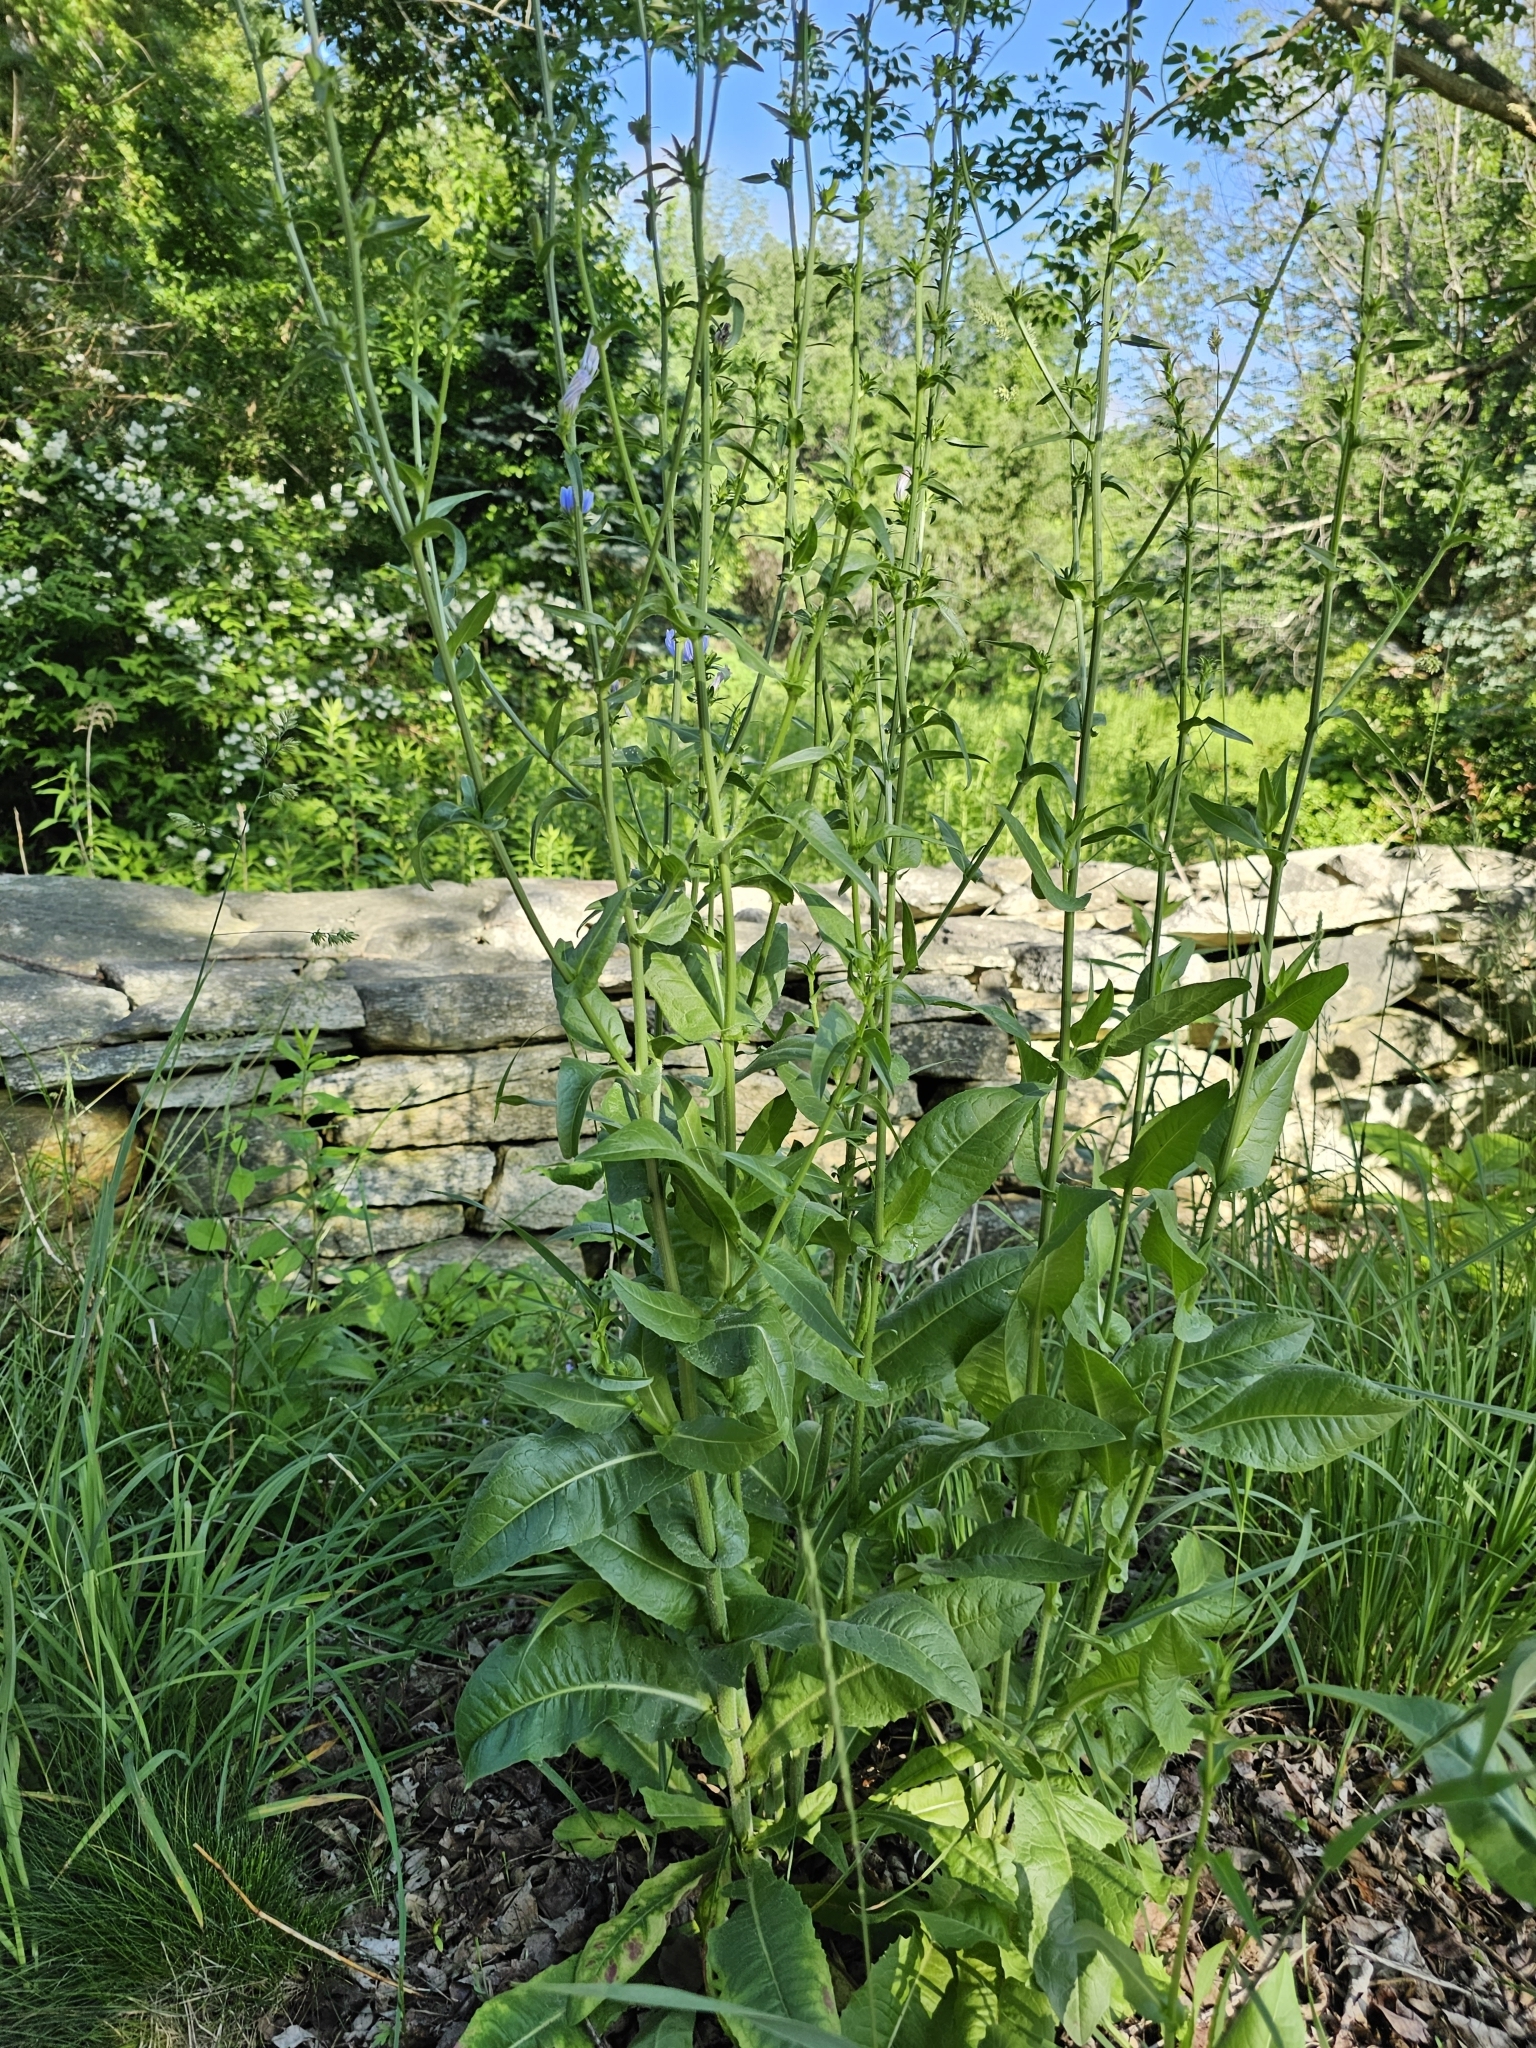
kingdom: Plantae
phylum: Tracheophyta
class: Magnoliopsida
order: Asterales
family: Asteraceae
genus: Cichorium
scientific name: Cichorium intybus
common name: Chicory
